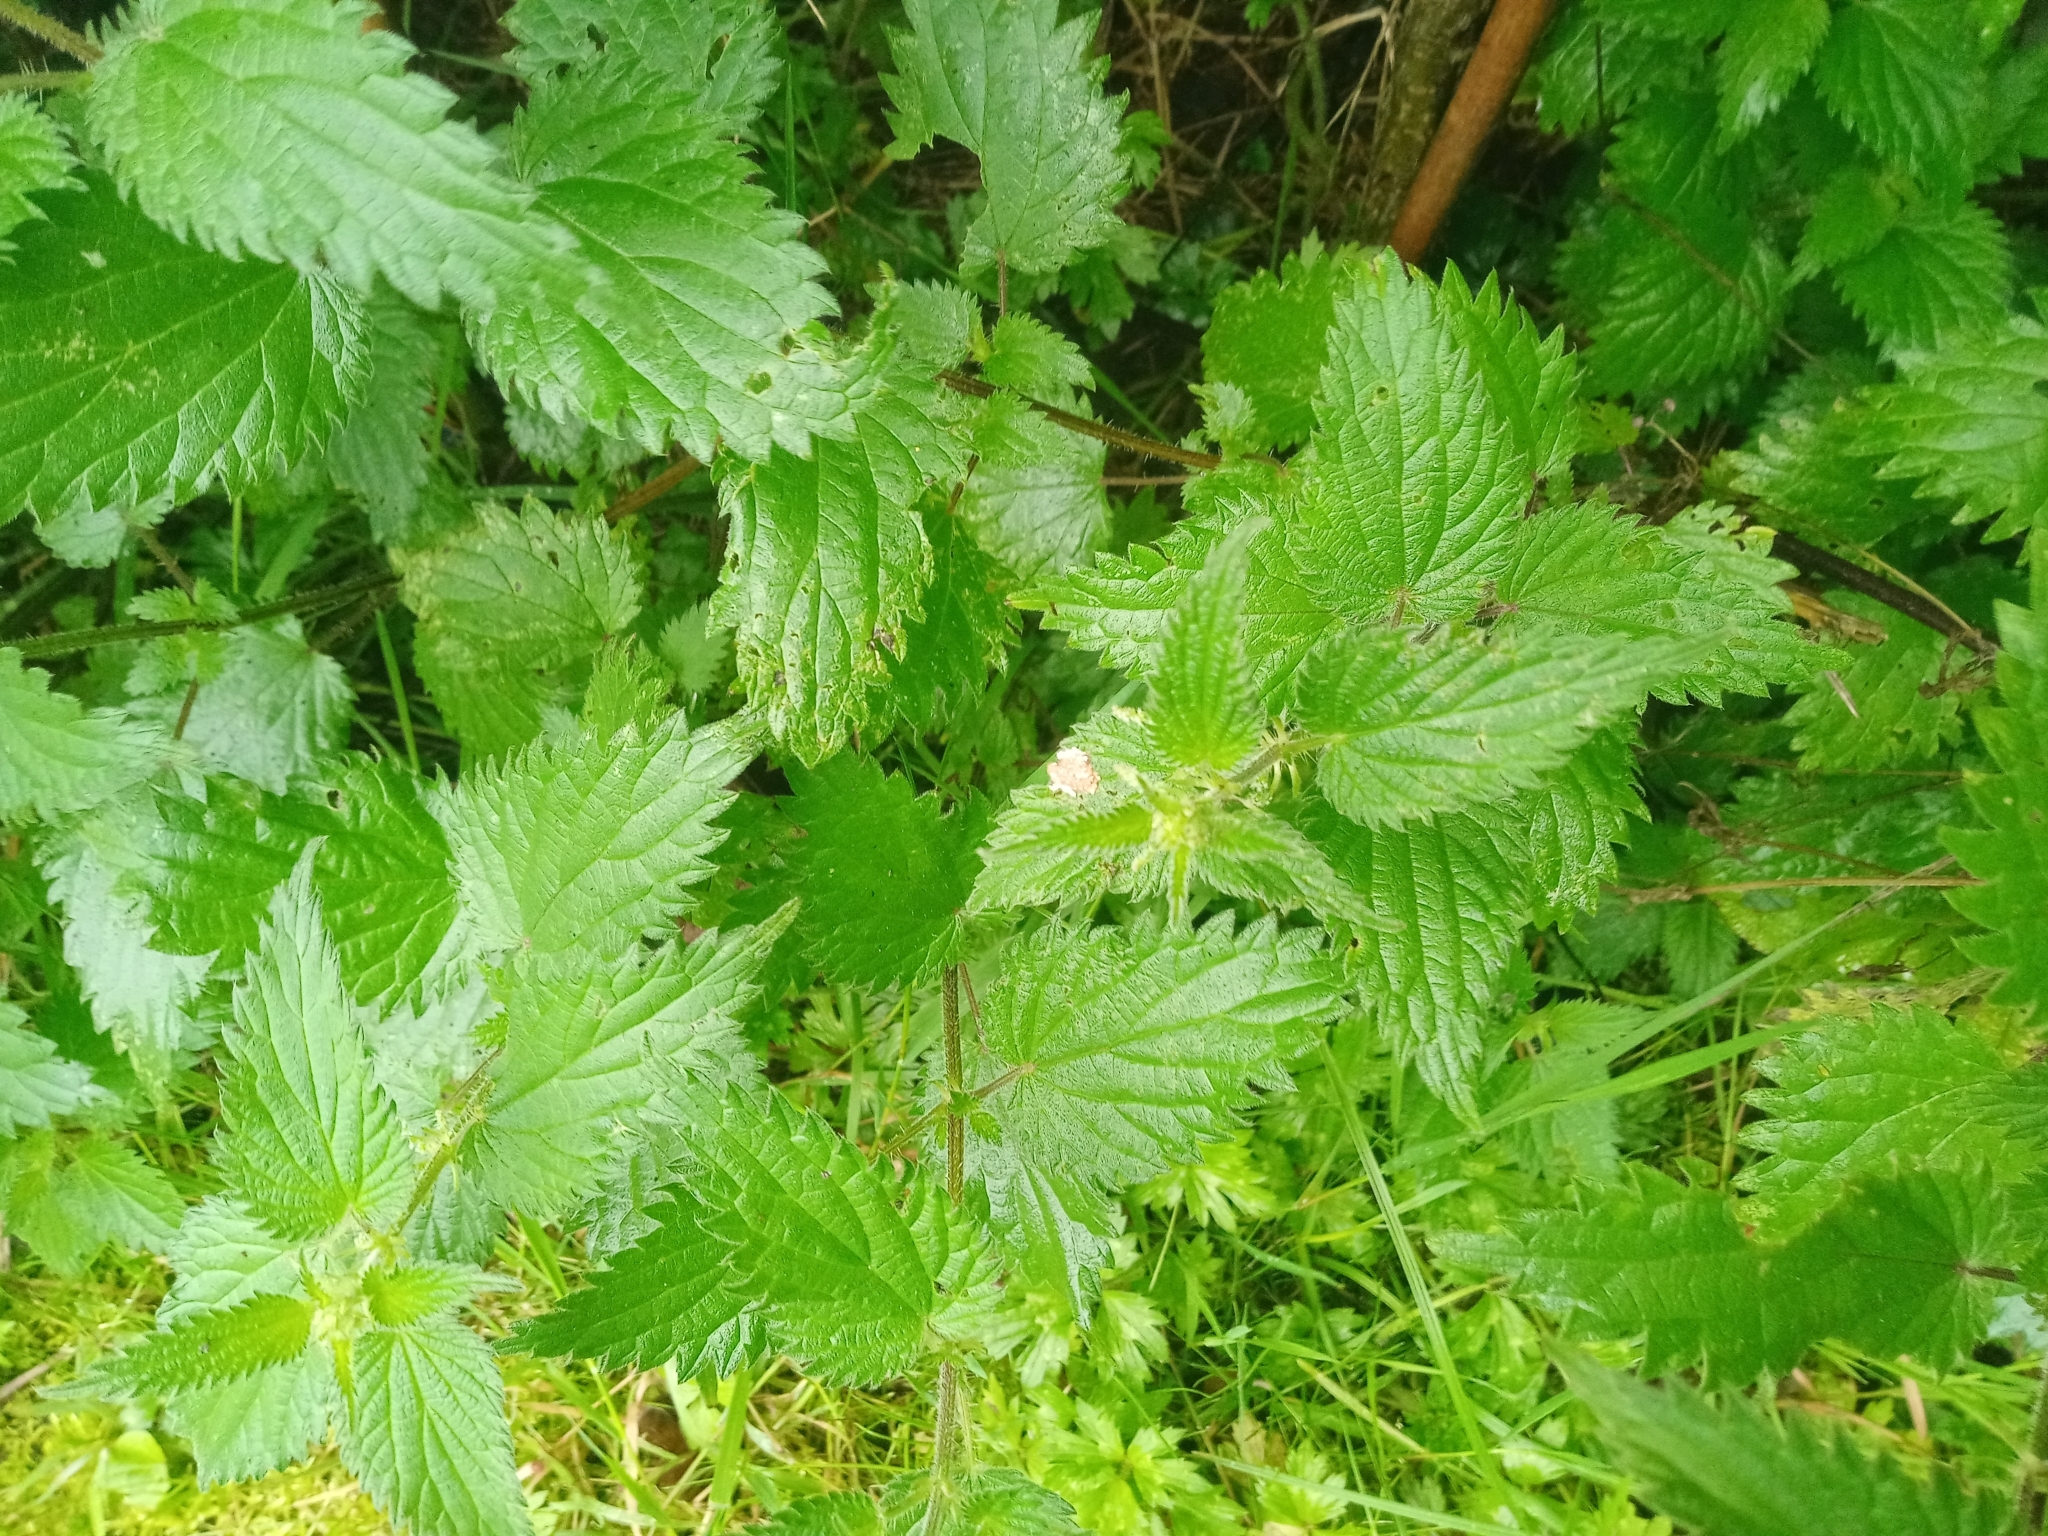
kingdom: Plantae
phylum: Tracheophyta
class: Magnoliopsida
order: Rosales
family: Urticaceae
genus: Urtica
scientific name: Urtica dioica
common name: Common nettle
